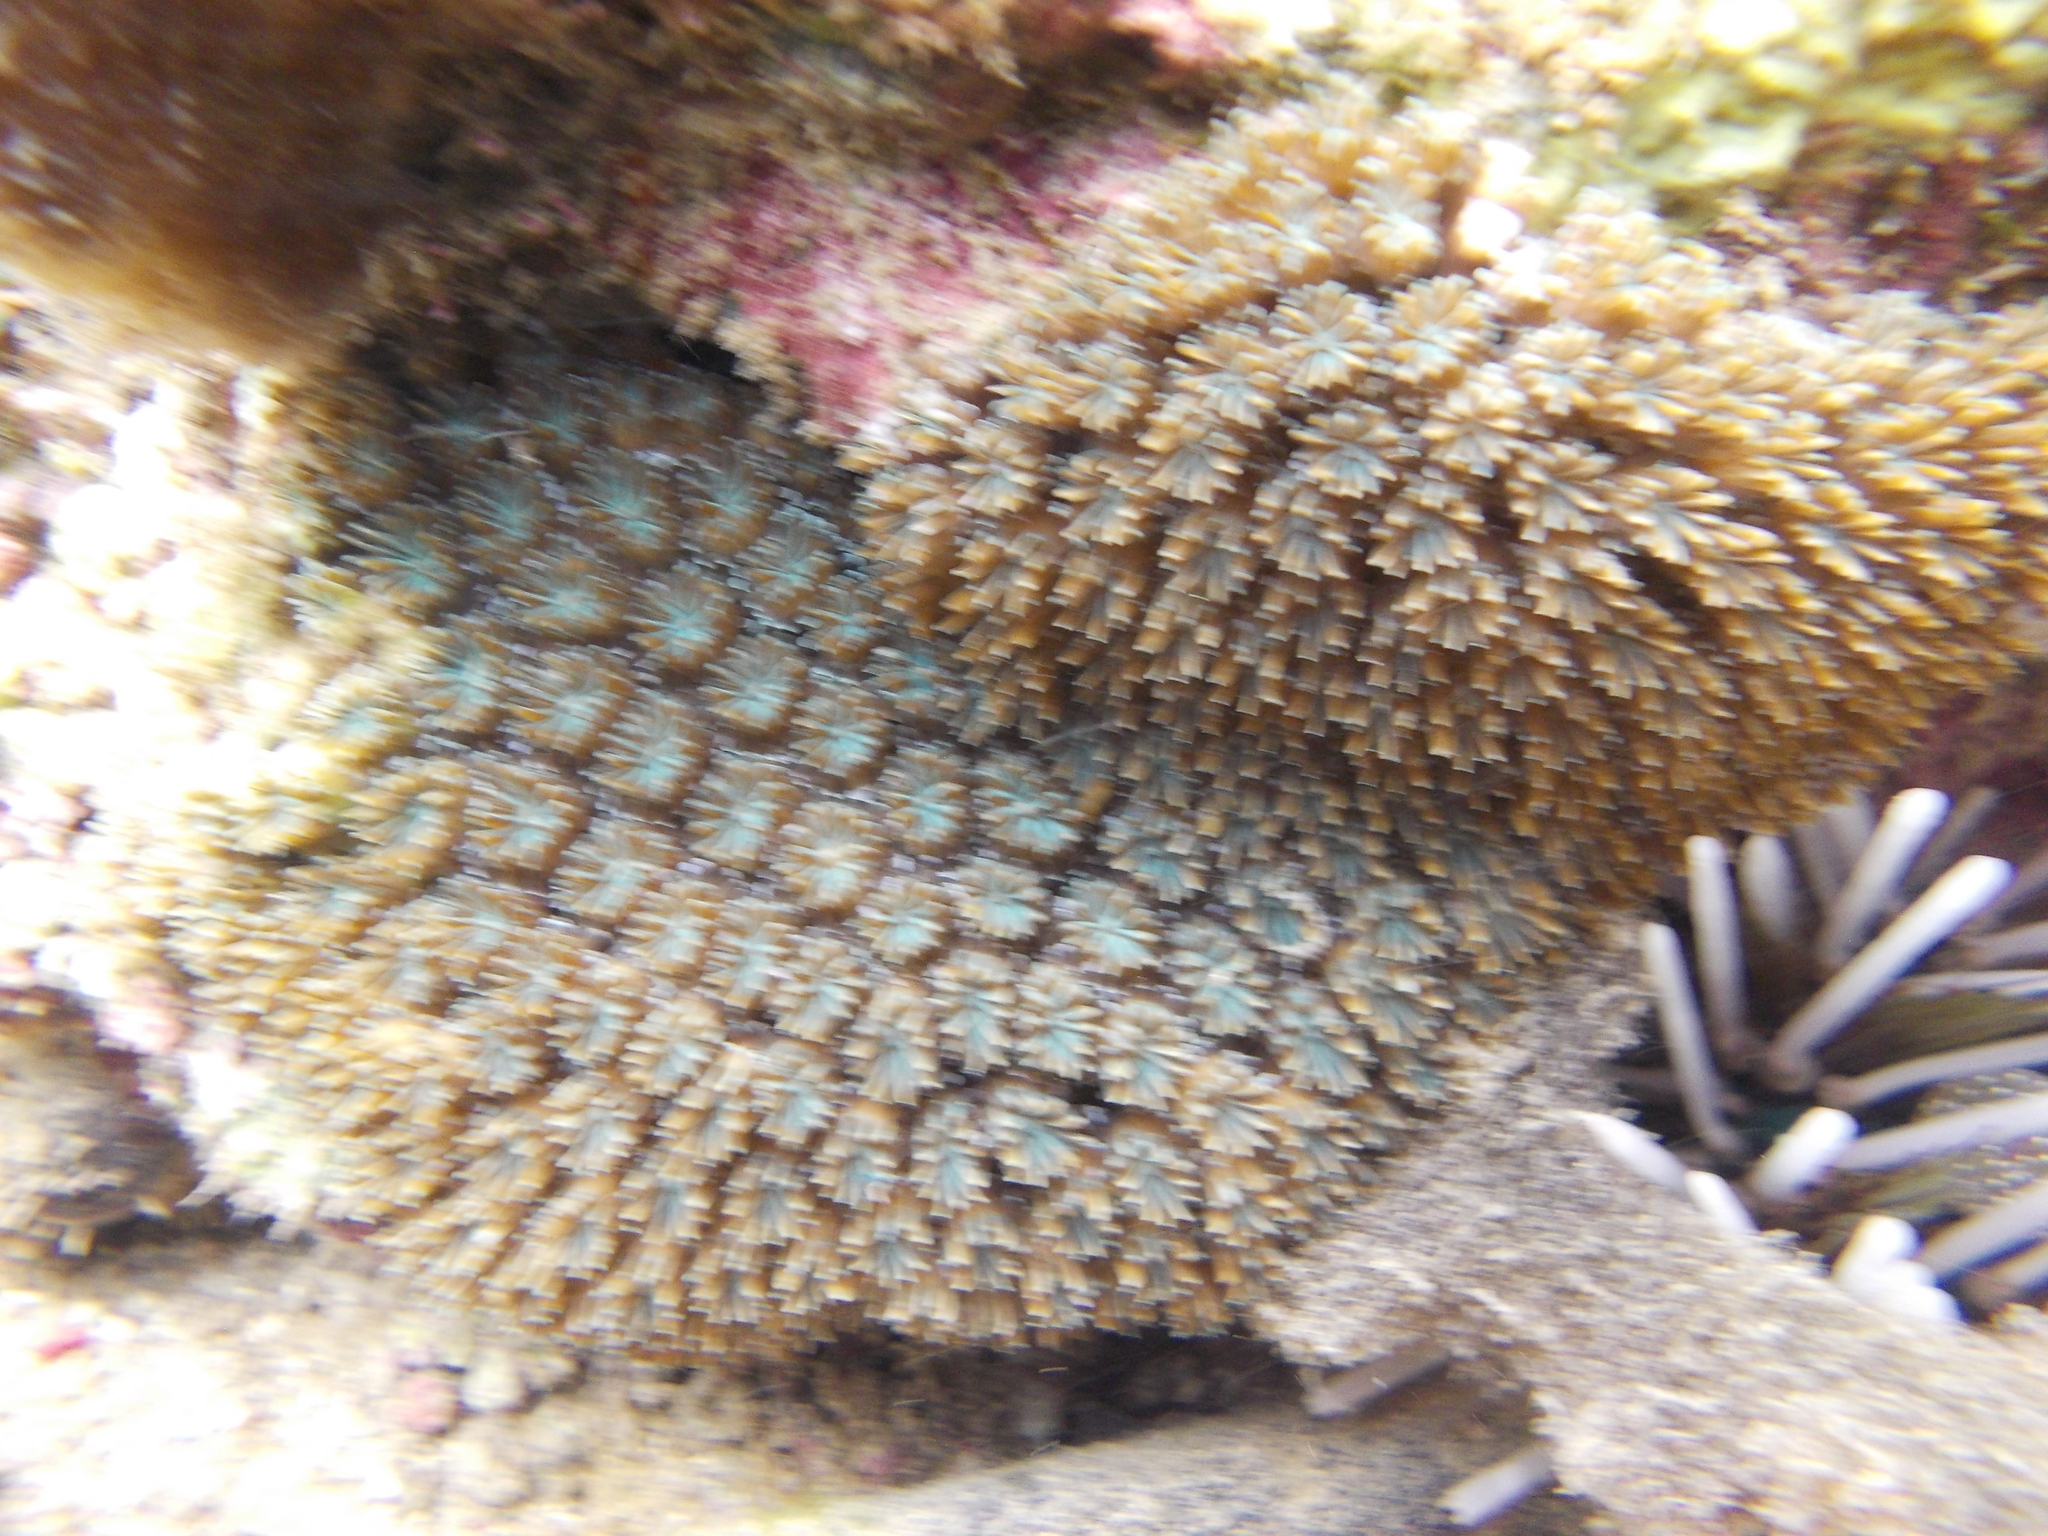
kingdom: Animalia
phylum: Cnidaria
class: Anthozoa
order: Scleractinia
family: Euphylliidae
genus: Galaxea
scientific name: Galaxea fascicularis
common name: Octopus coral
